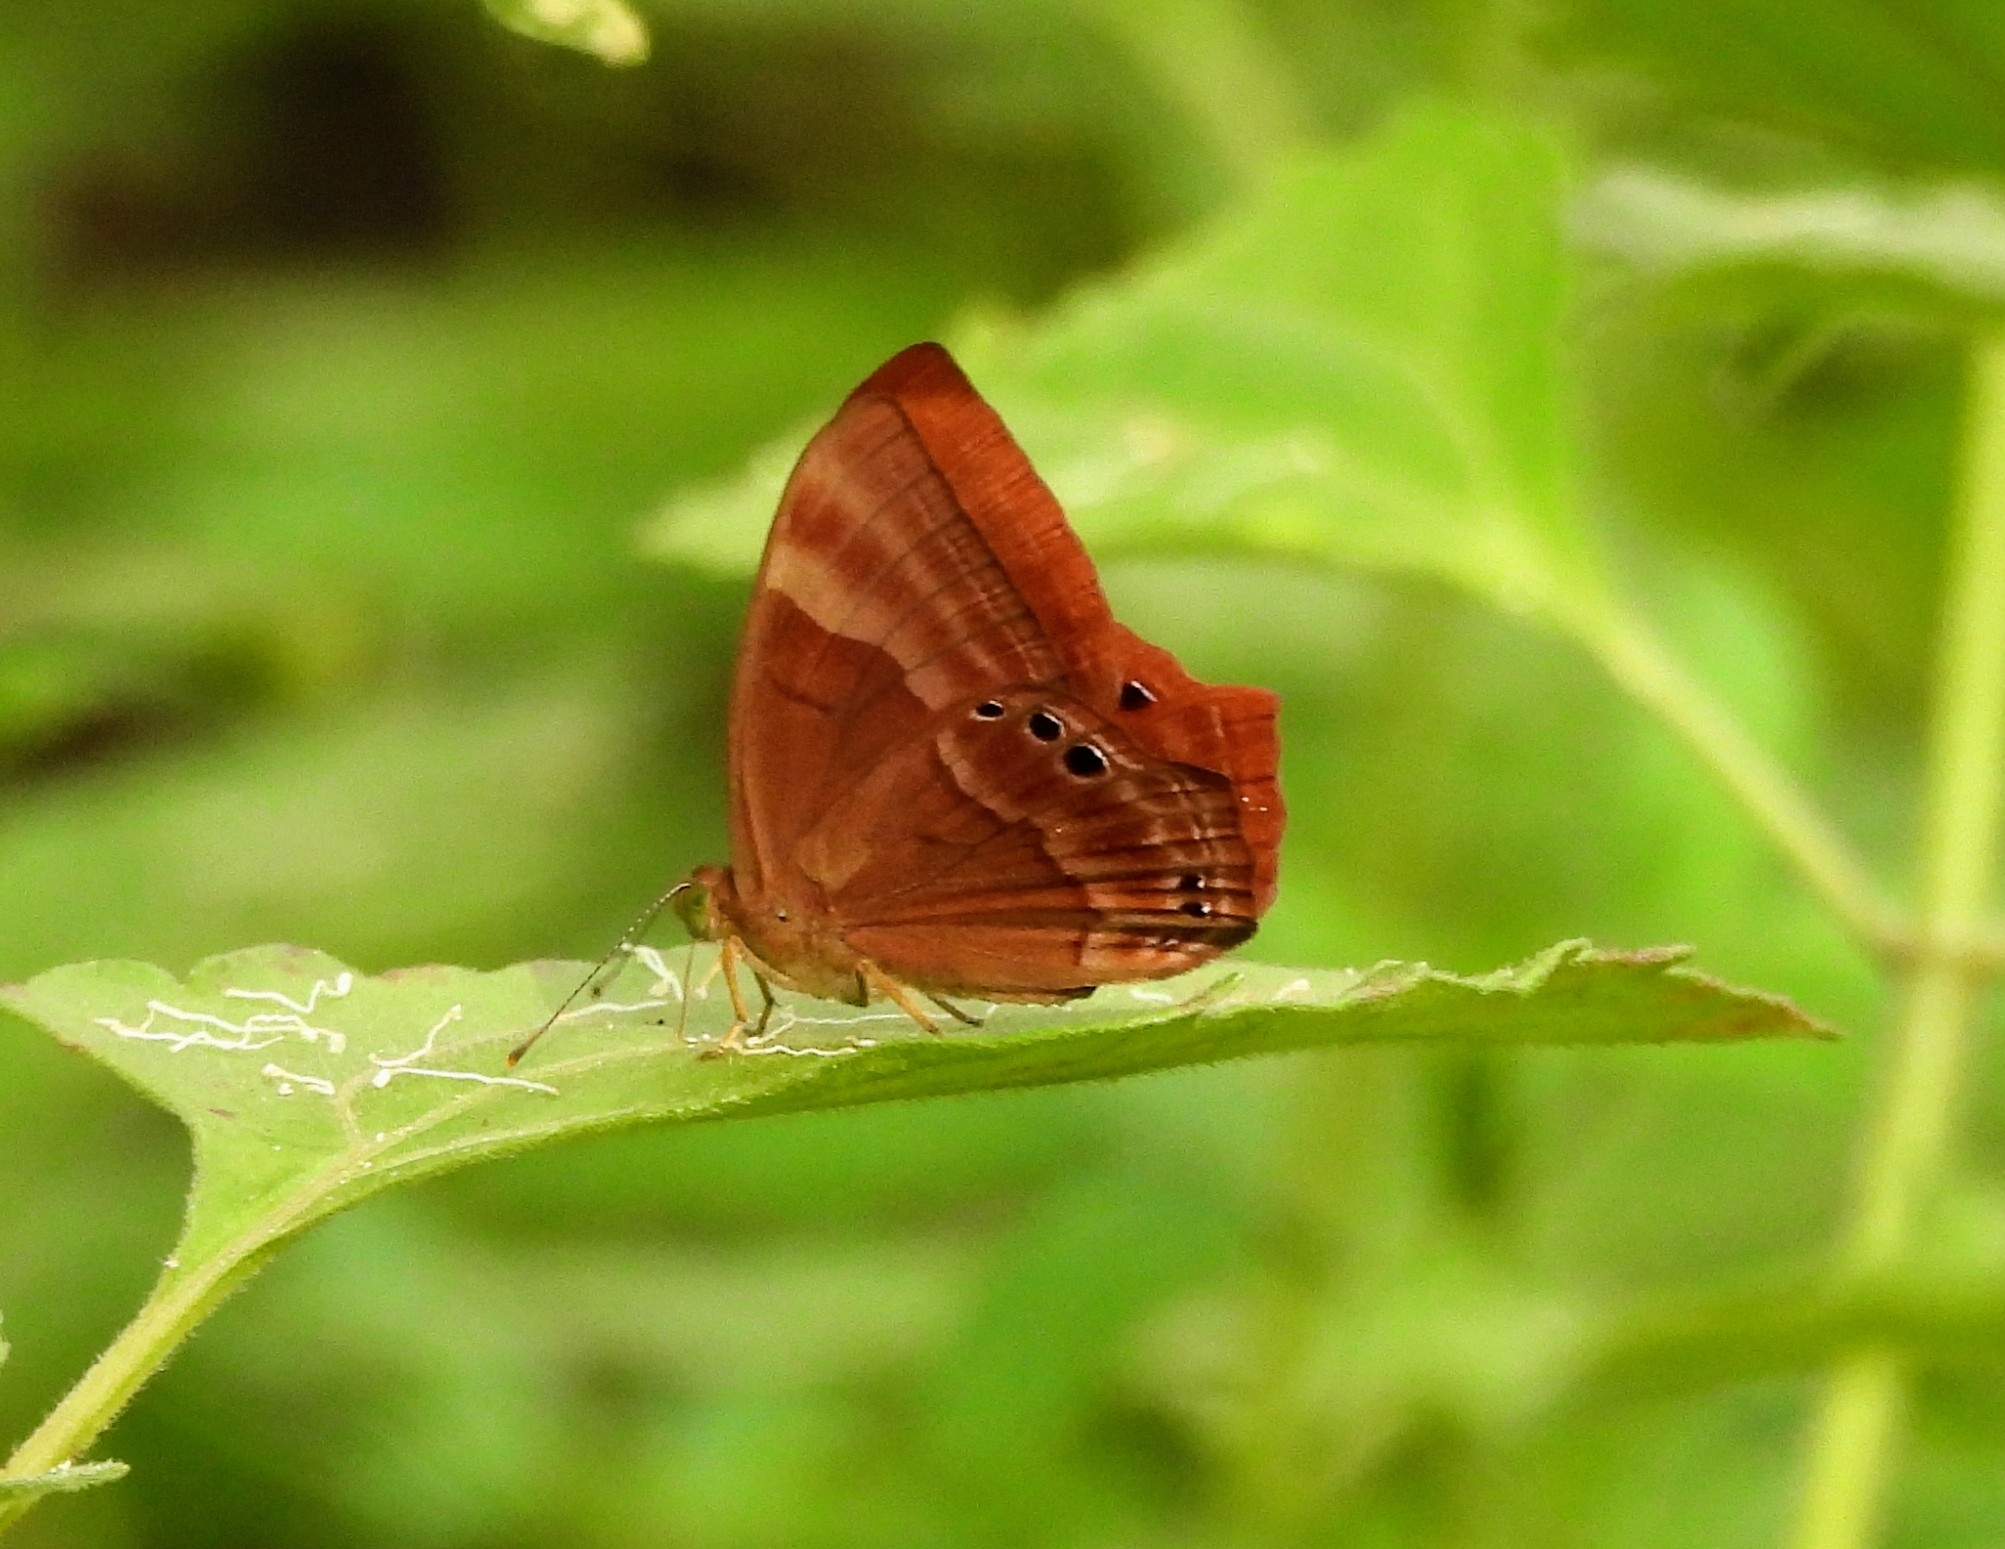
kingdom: Animalia
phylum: Arthropoda
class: Insecta
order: Lepidoptera
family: Lycaenidae
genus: Abisara
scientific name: Abisara bifasciata
